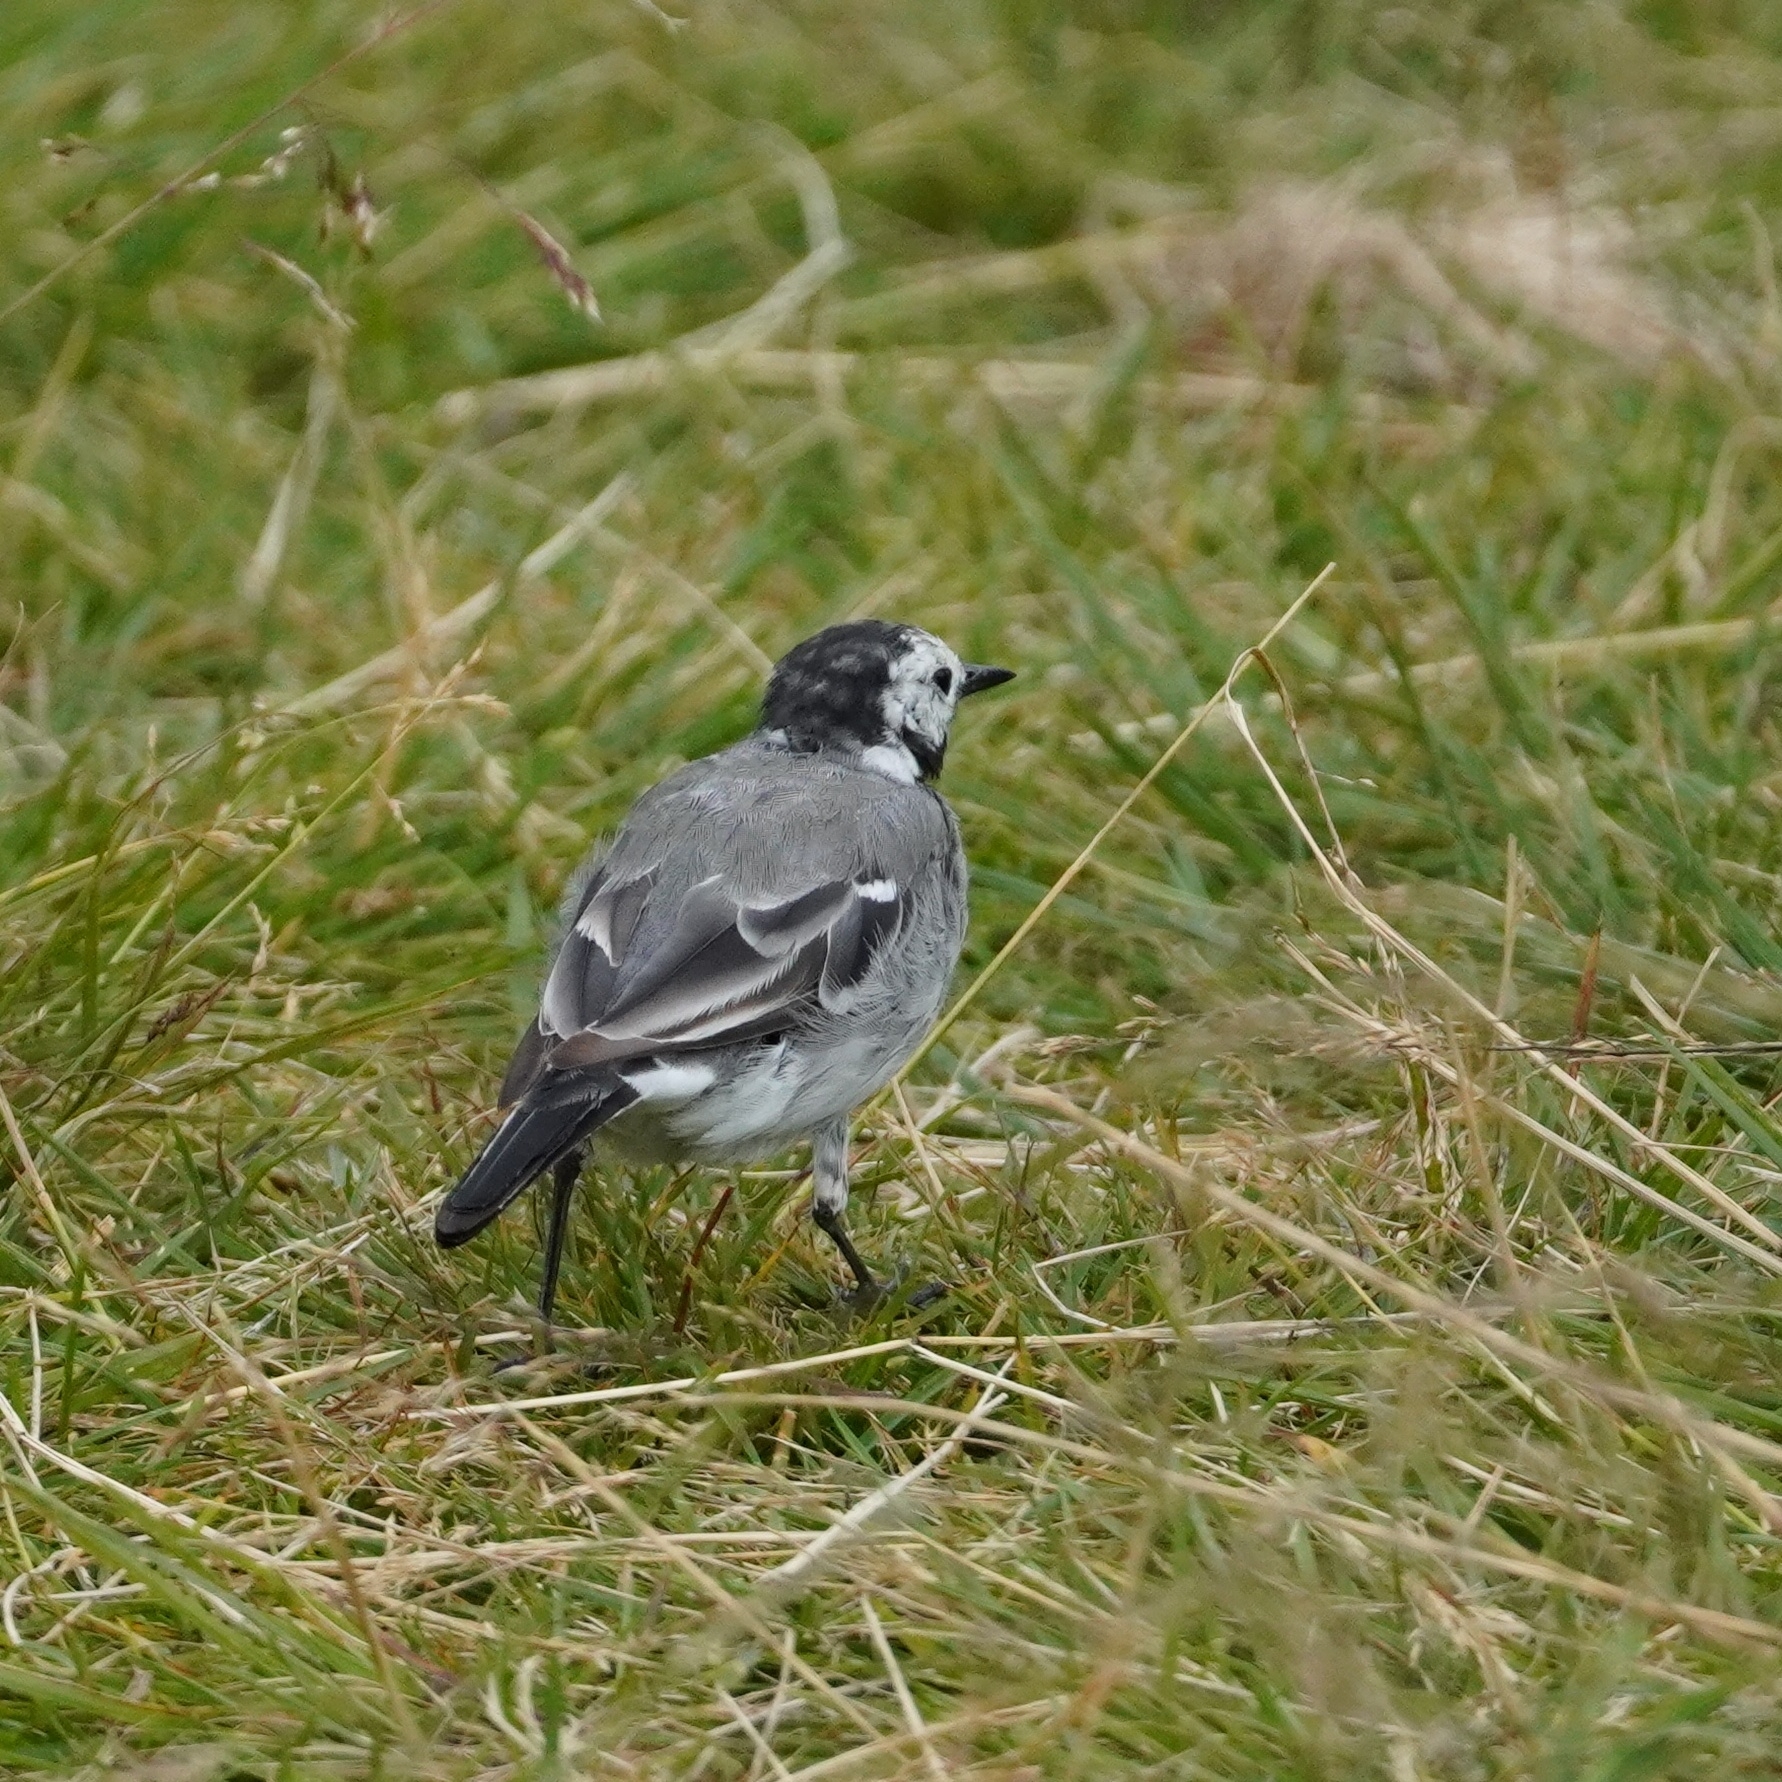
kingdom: Animalia
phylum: Chordata
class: Aves
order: Passeriformes
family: Motacillidae
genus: Motacilla
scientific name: Motacilla alba
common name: White wagtail
